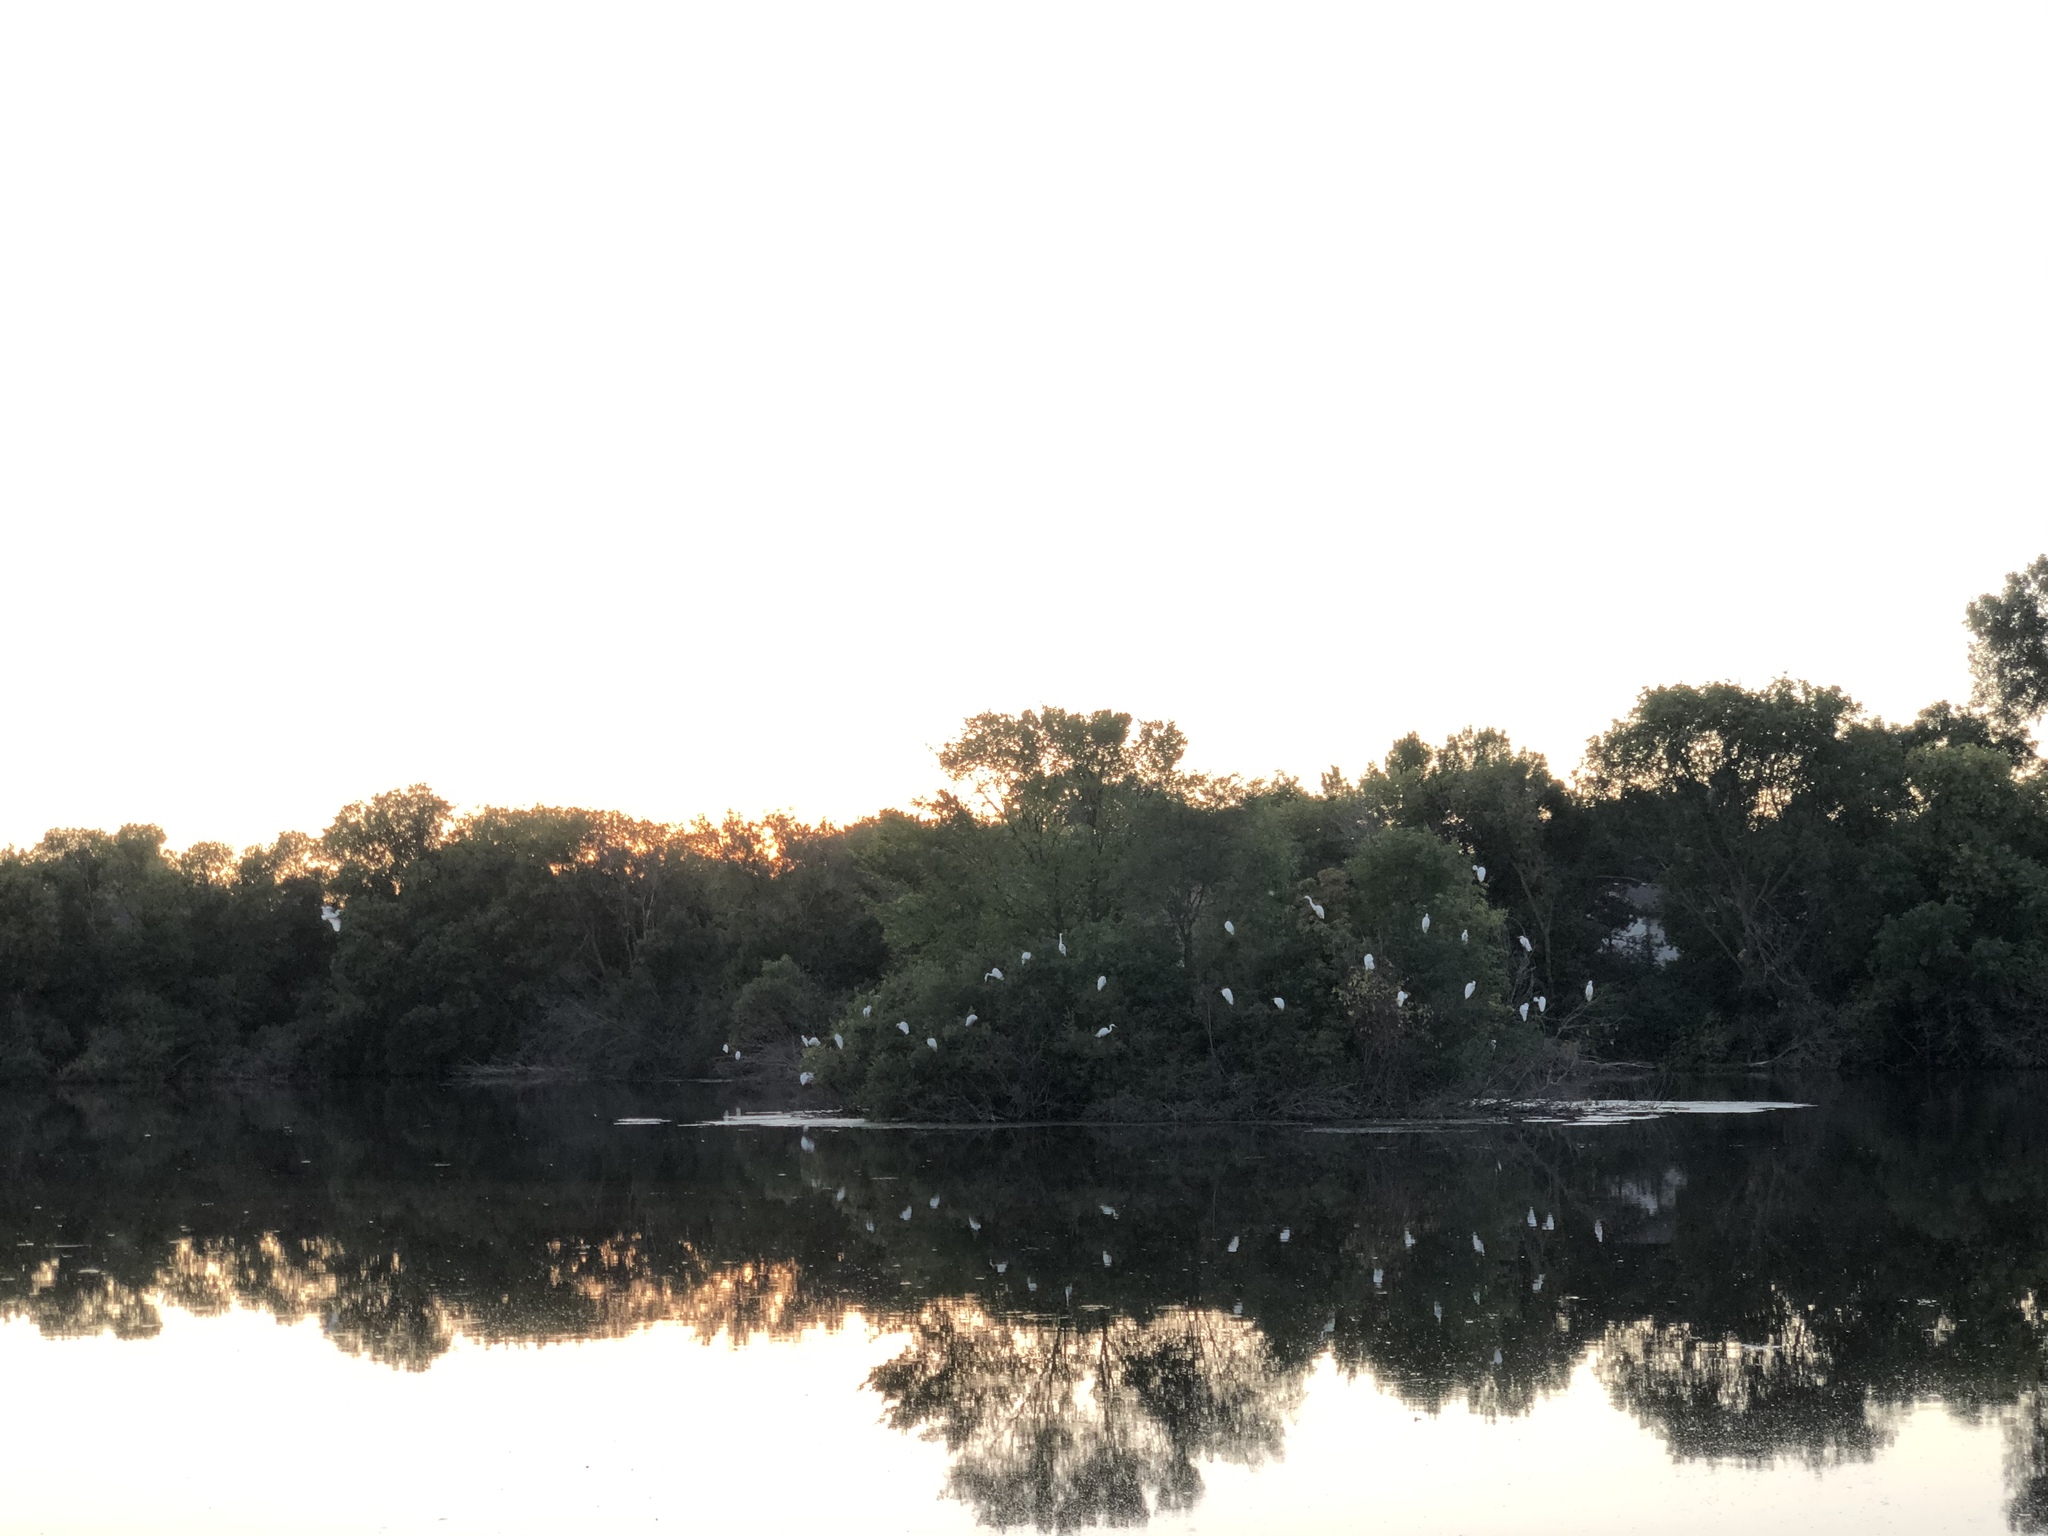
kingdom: Animalia
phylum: Chordata
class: Aves
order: Pelecaniformes
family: Ardeidae
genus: Ardea
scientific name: Ardea alba
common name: Great egret
